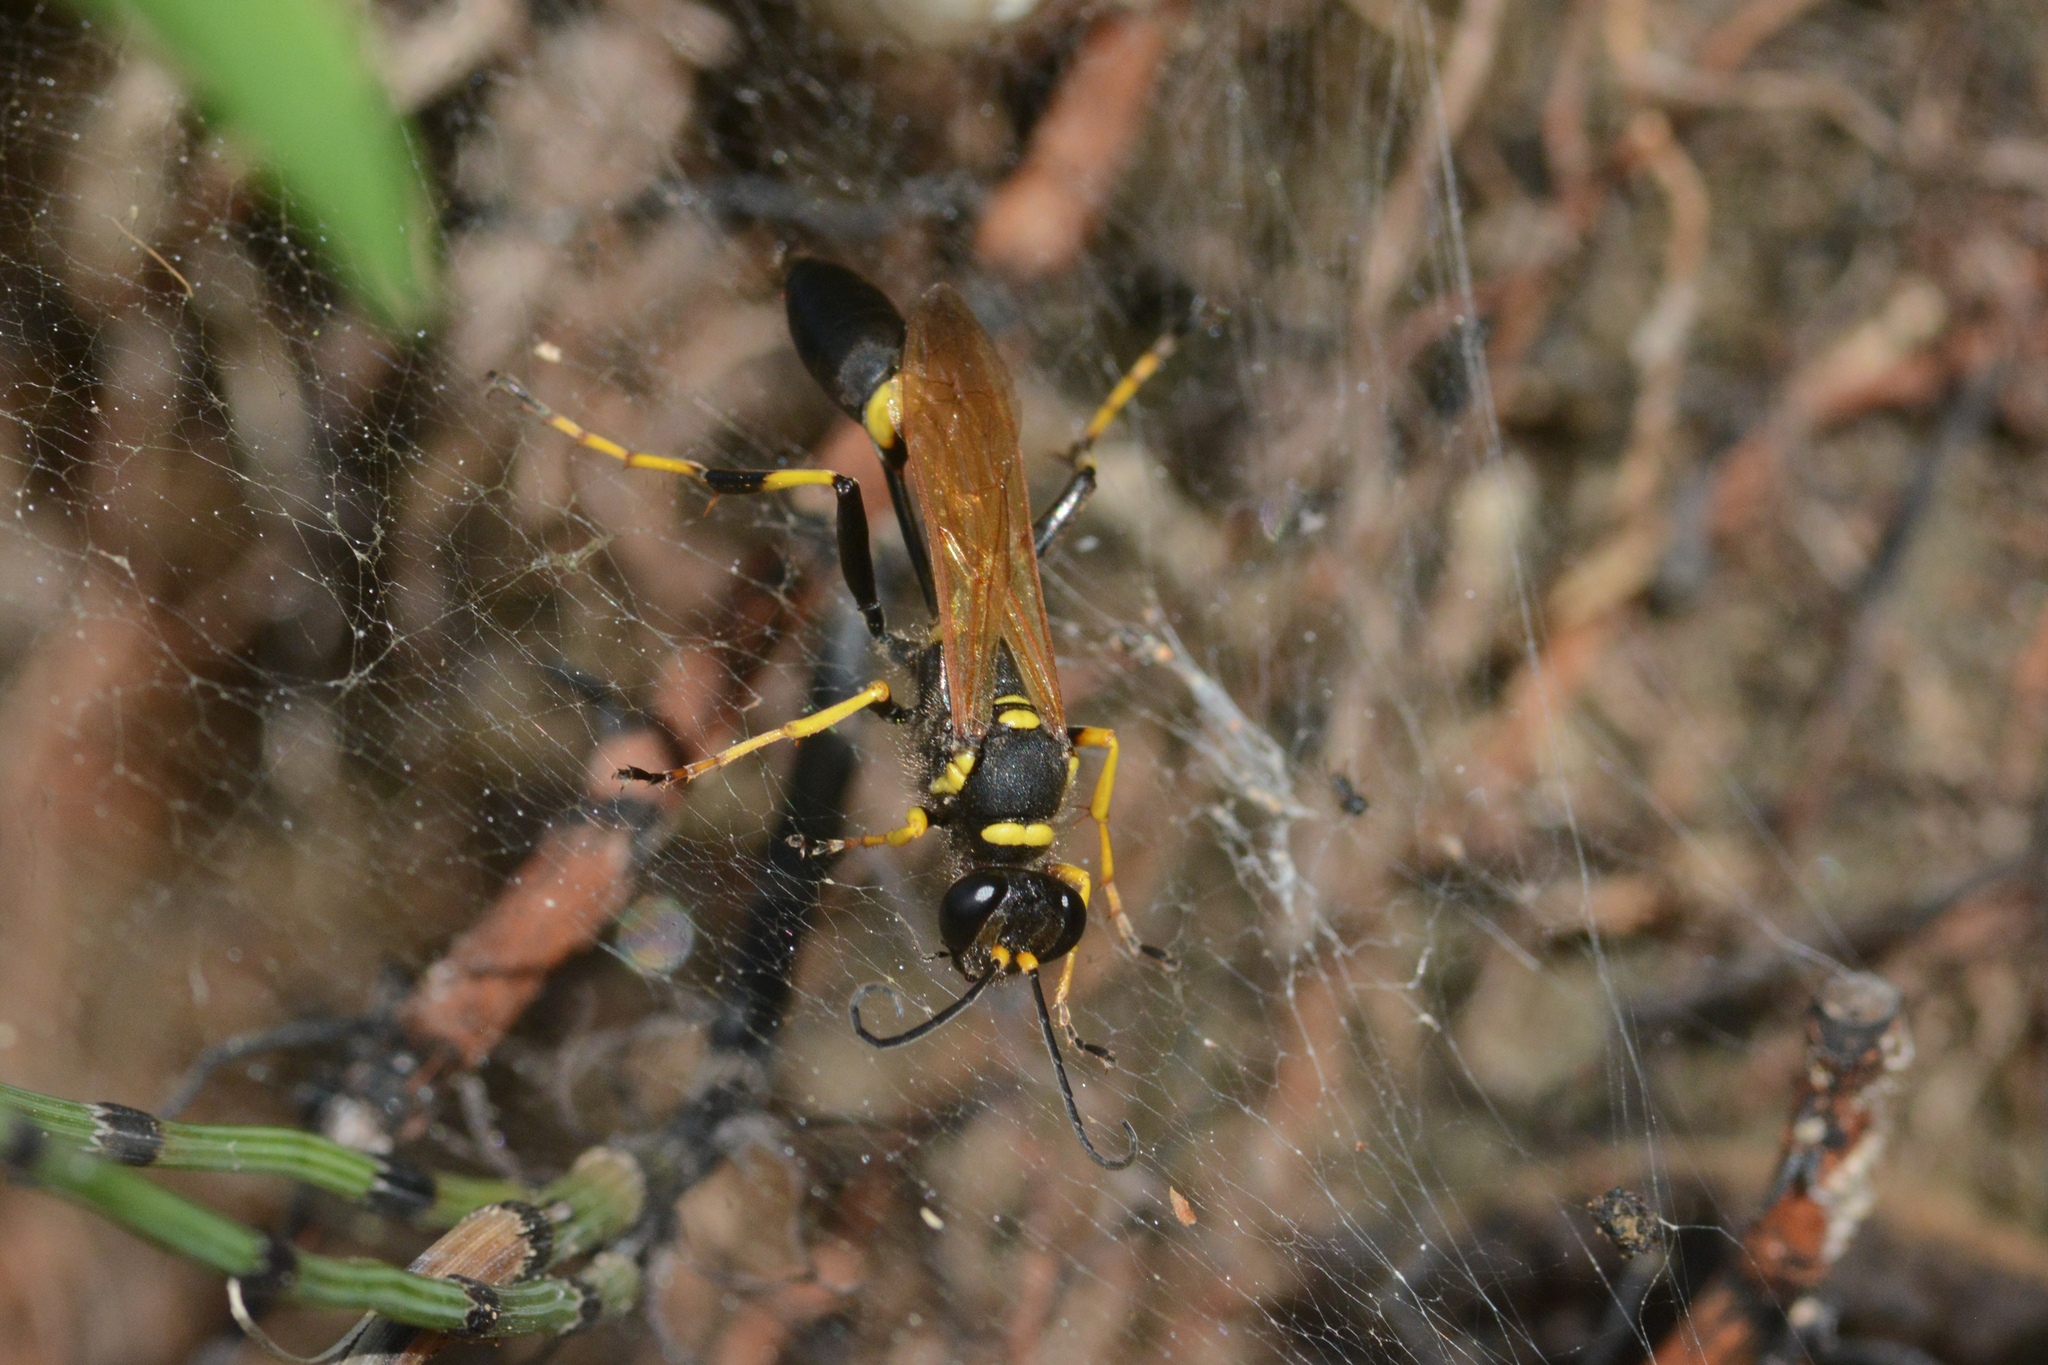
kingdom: Animalia
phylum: Arthropoda
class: Insecta
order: Hymenoptera
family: Sphecidae
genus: Sceliphron
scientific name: Sceliphron caementarium
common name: Mud dauber
